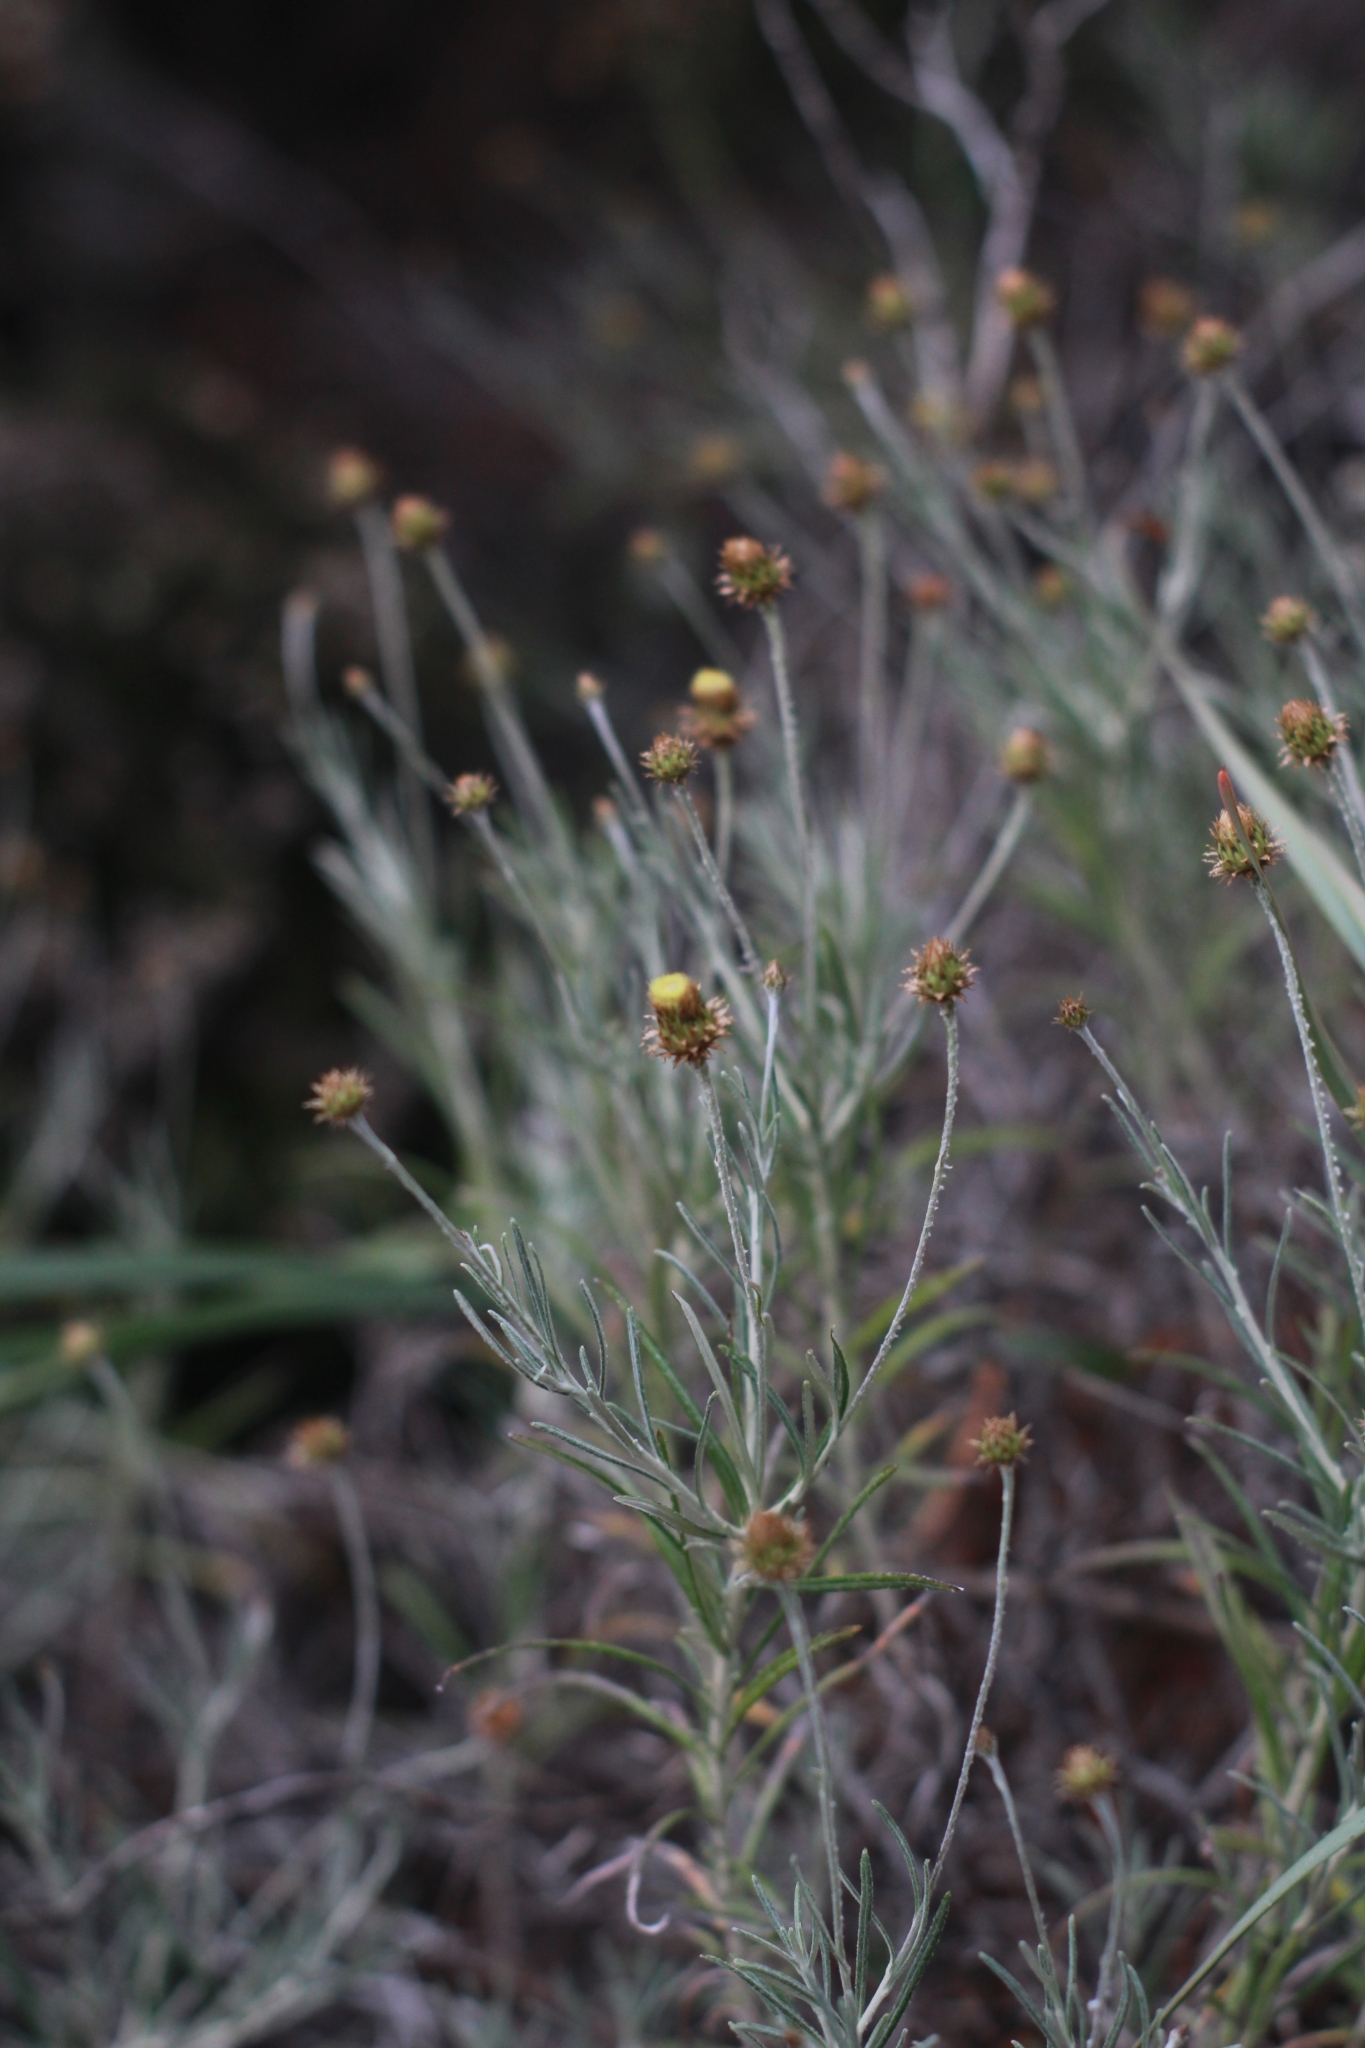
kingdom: Plantae
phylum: Tracheophyta
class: Magnoliopsida
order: Asterales
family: Asteraceae
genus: Phagnalon
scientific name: Phagnalon saxatile
